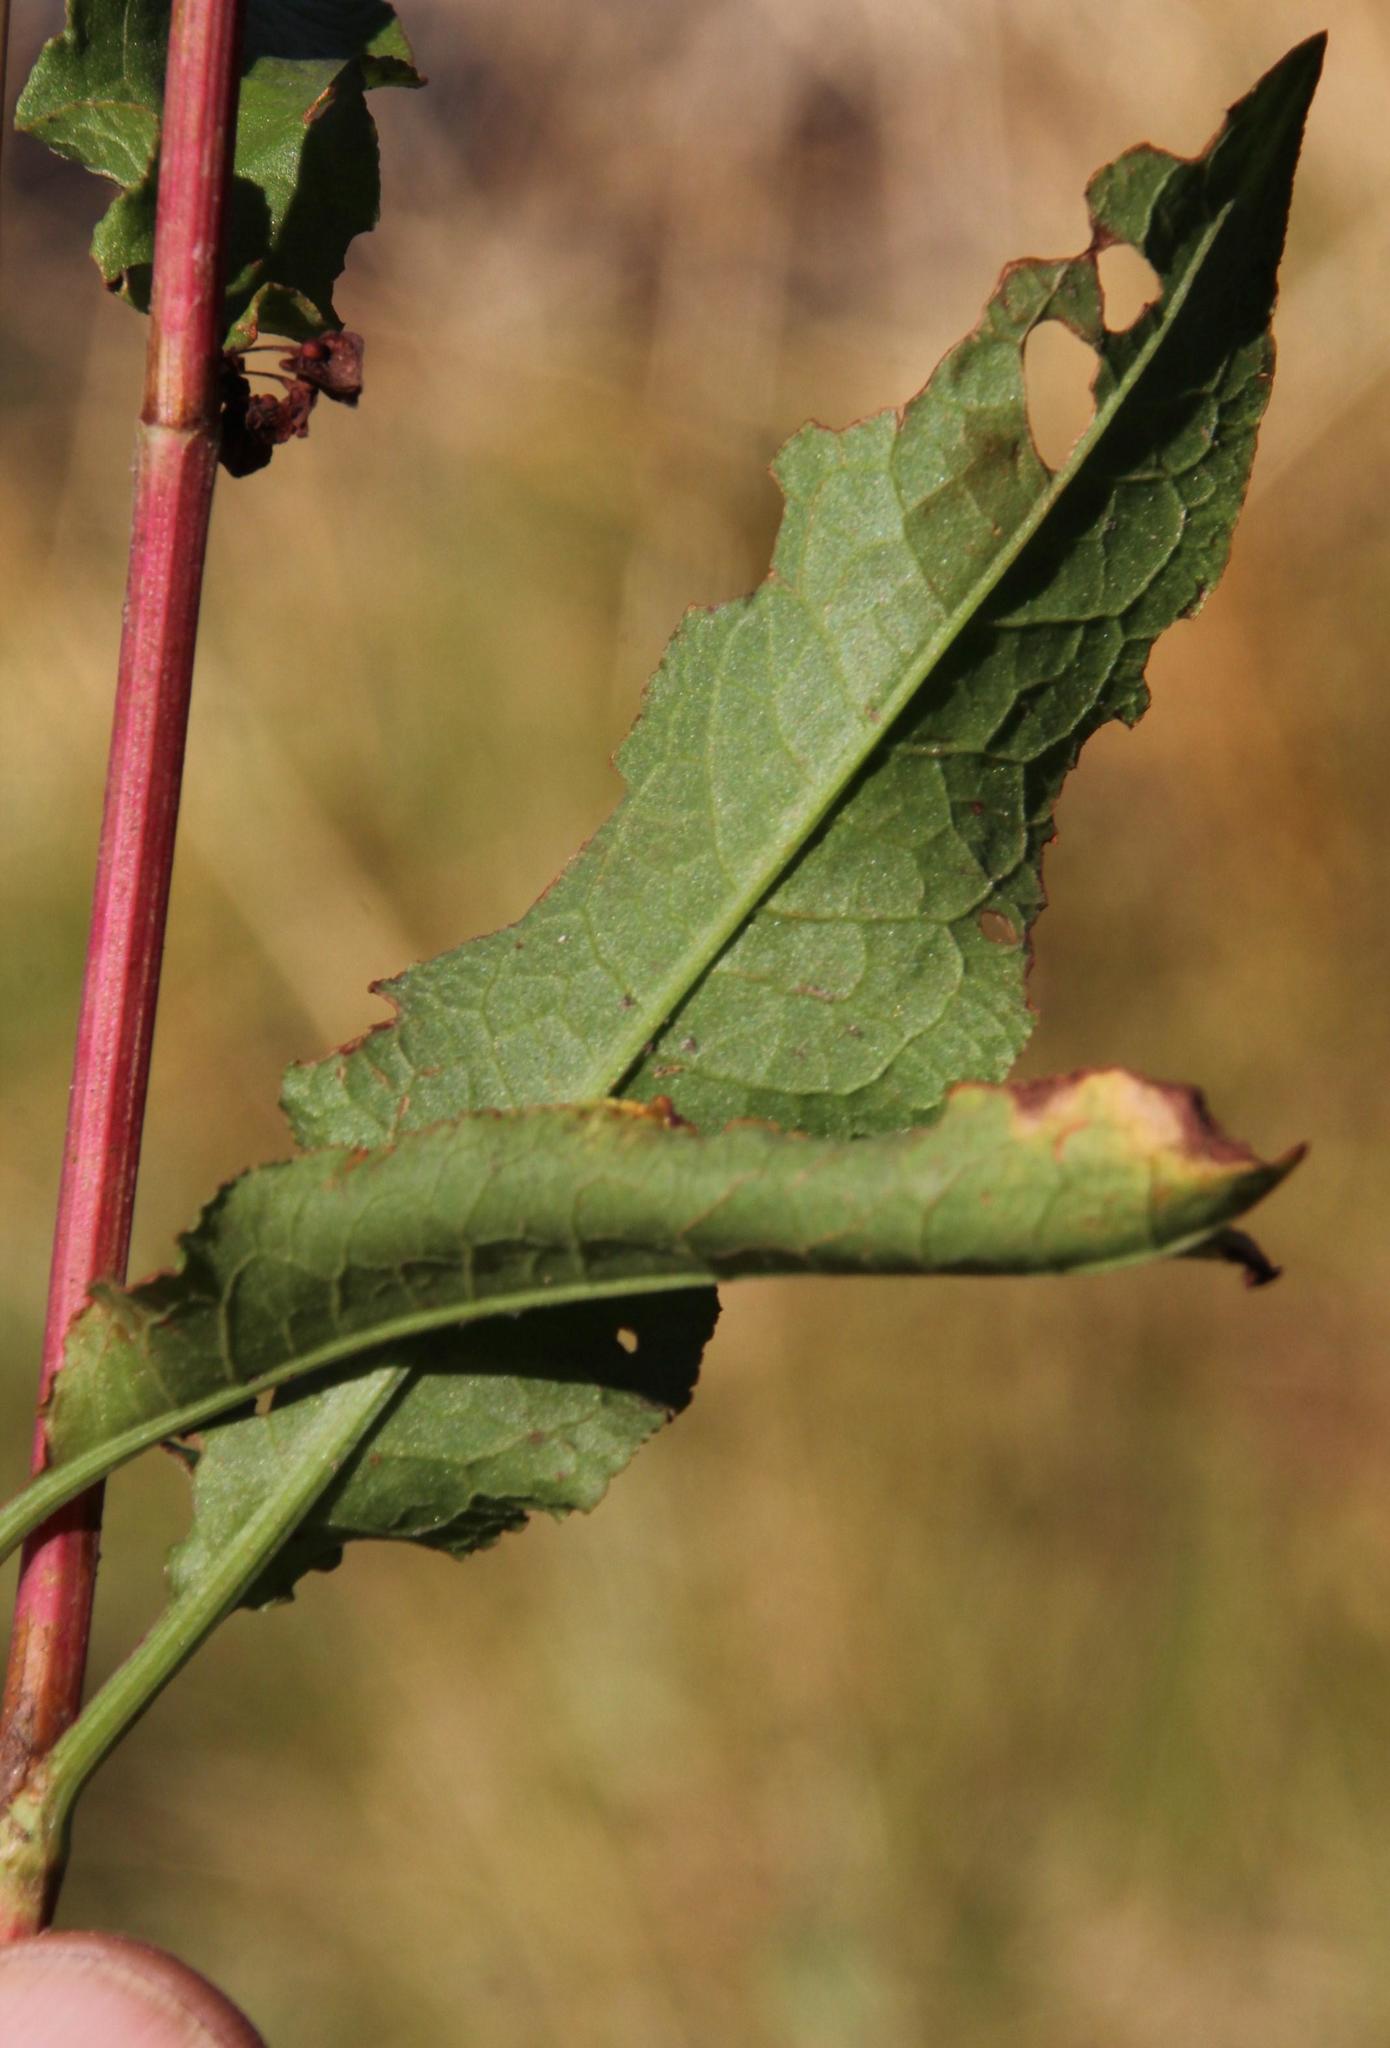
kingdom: Plantae
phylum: Tracheophyta
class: Magnoliopsida
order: Caryophyllales
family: Polygonaceae
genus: Rumex
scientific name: Rumex crispus
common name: Curled dock
